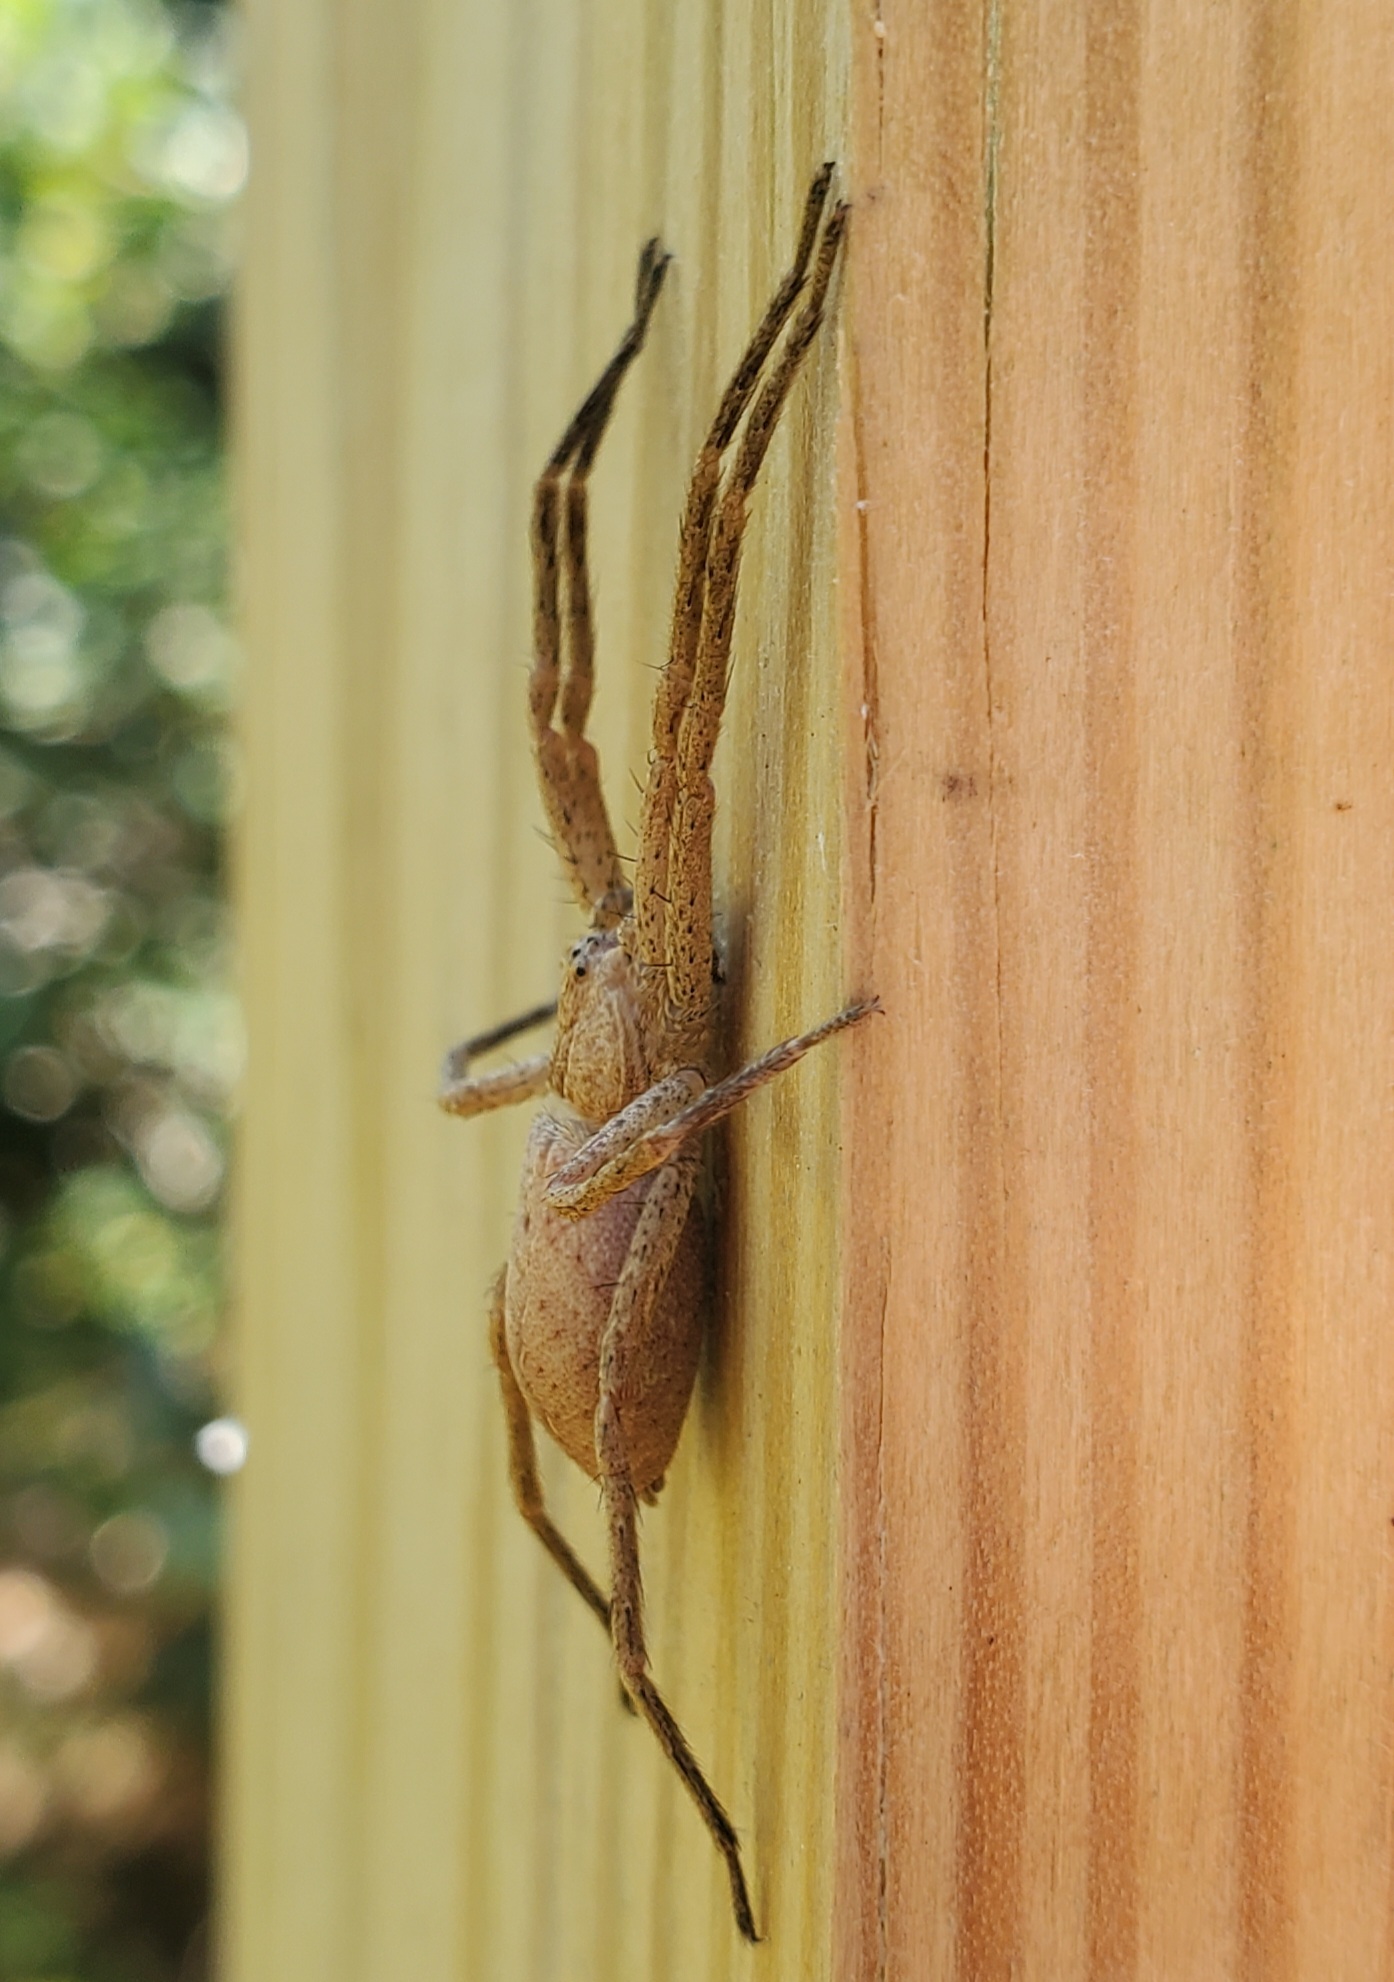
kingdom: Animalia
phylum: Arthropoda
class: Arachnida
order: Araneae
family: Pisauridae
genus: Pisaurina
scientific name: Pisaurina mira
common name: American nursery web spider
